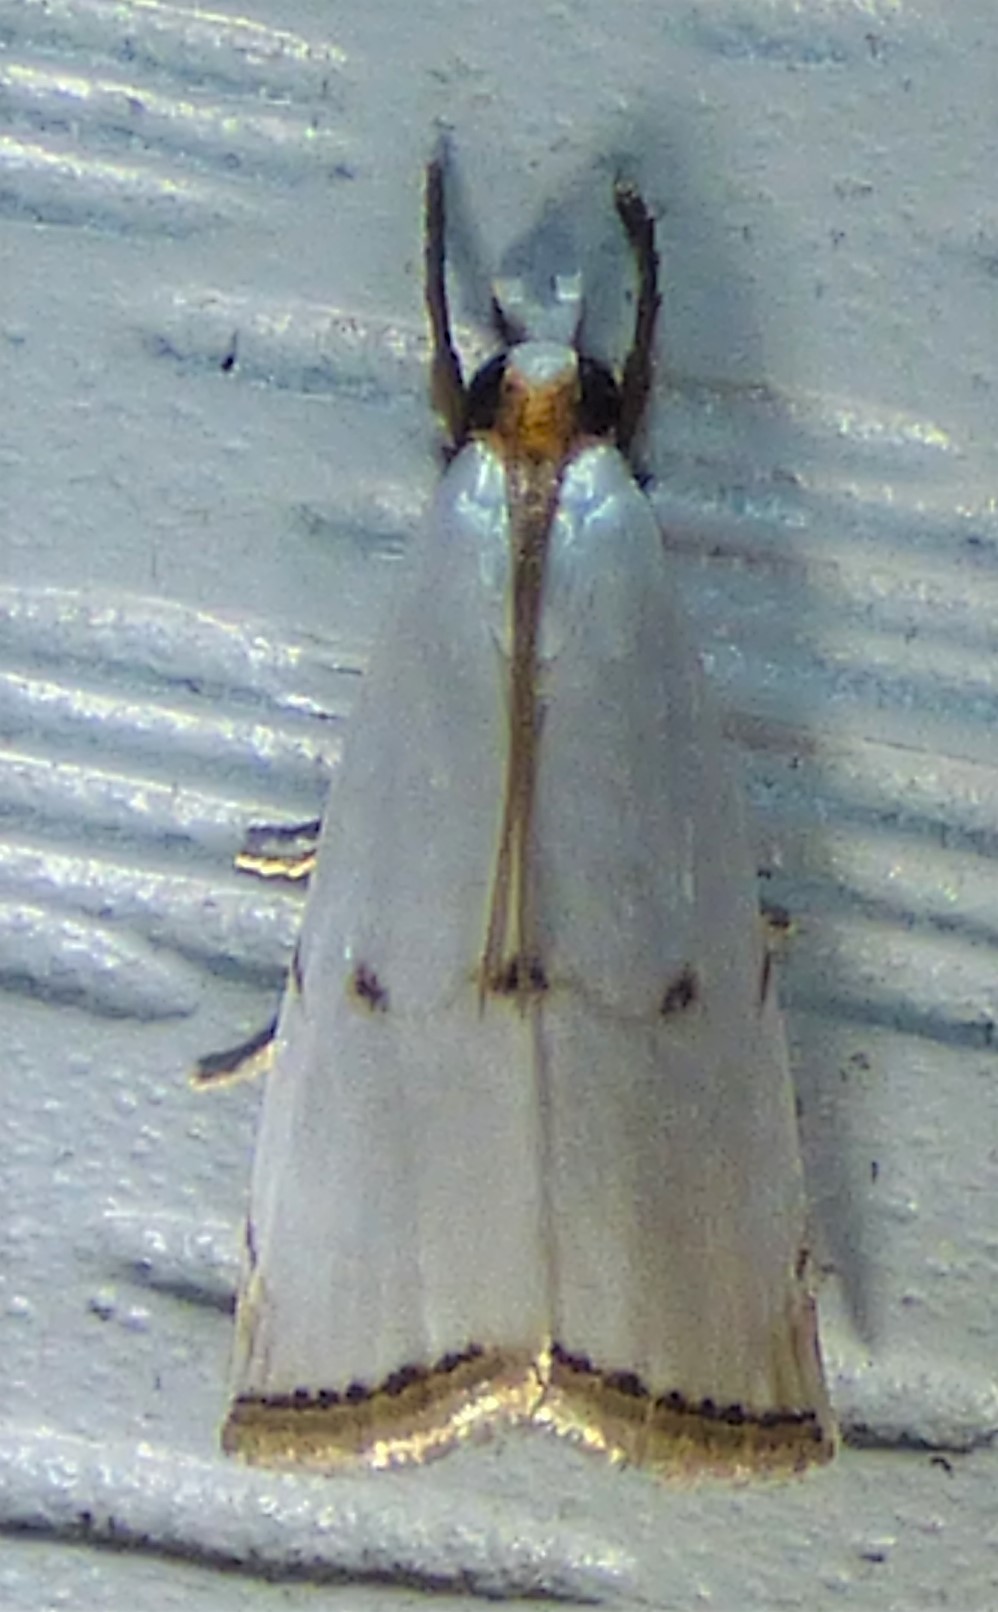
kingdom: Animalia
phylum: Arthropoda
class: Insecta
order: Lepidoptera
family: Crambidae
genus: Argyria
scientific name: Argyria pusillalis
